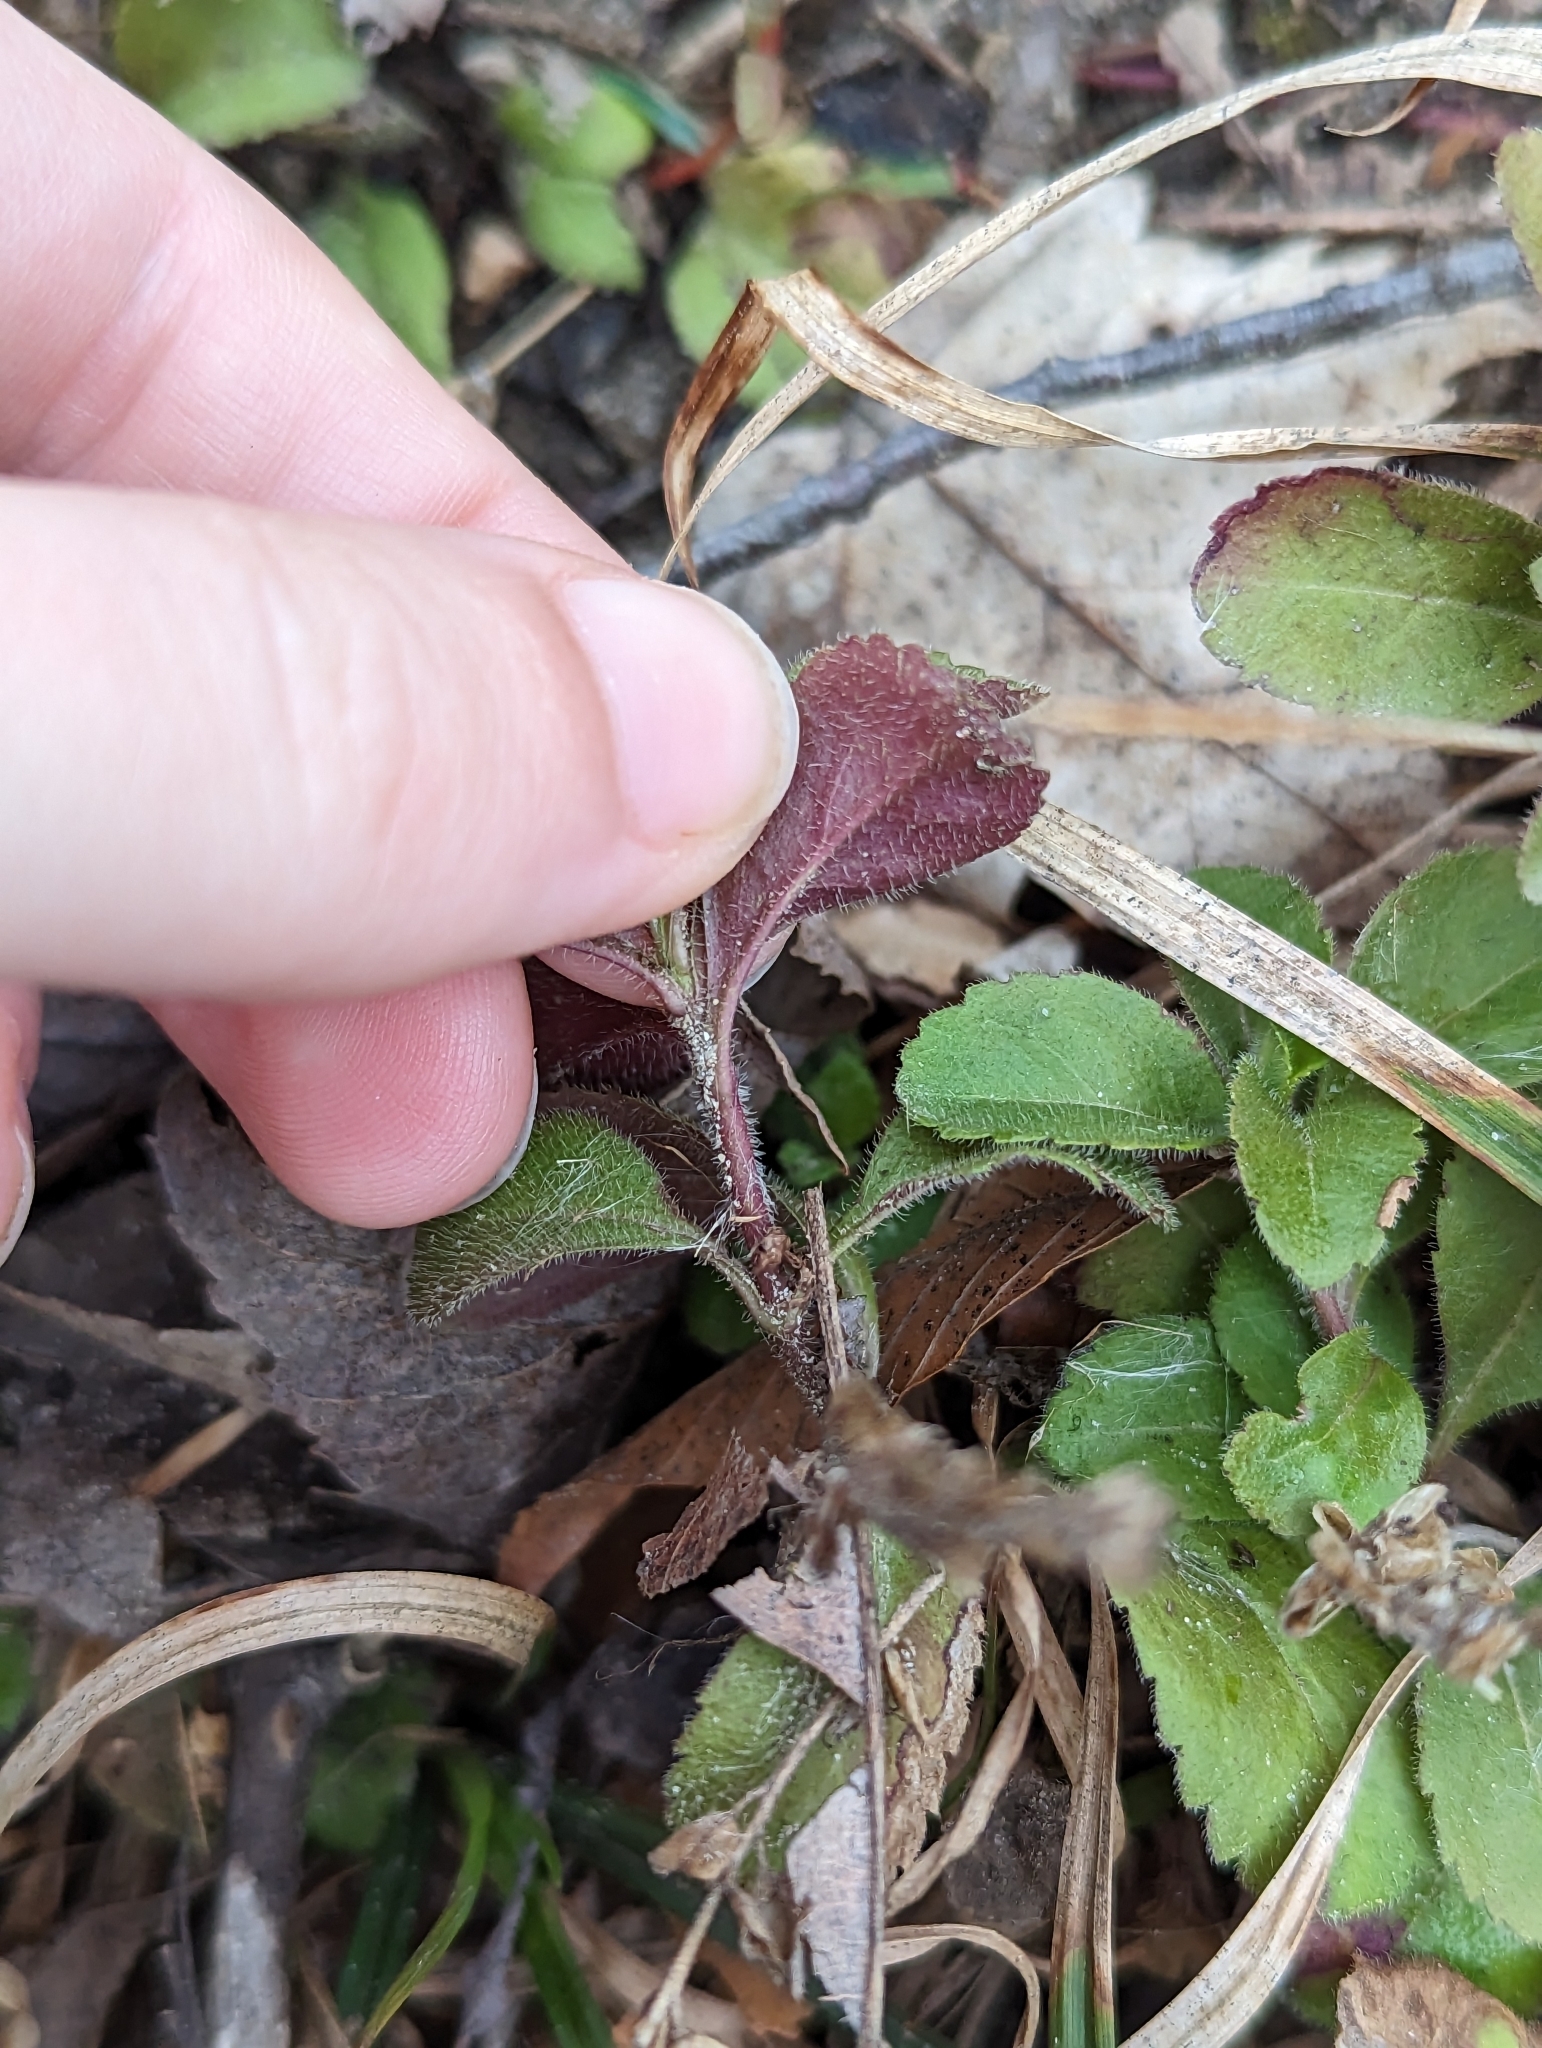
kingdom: Plantae
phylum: Tracheophyta
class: Magnoliopsida
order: Lamiales
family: Plantaginaceae
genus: Veronica
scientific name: Veronica officinalis
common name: Common speedwell
